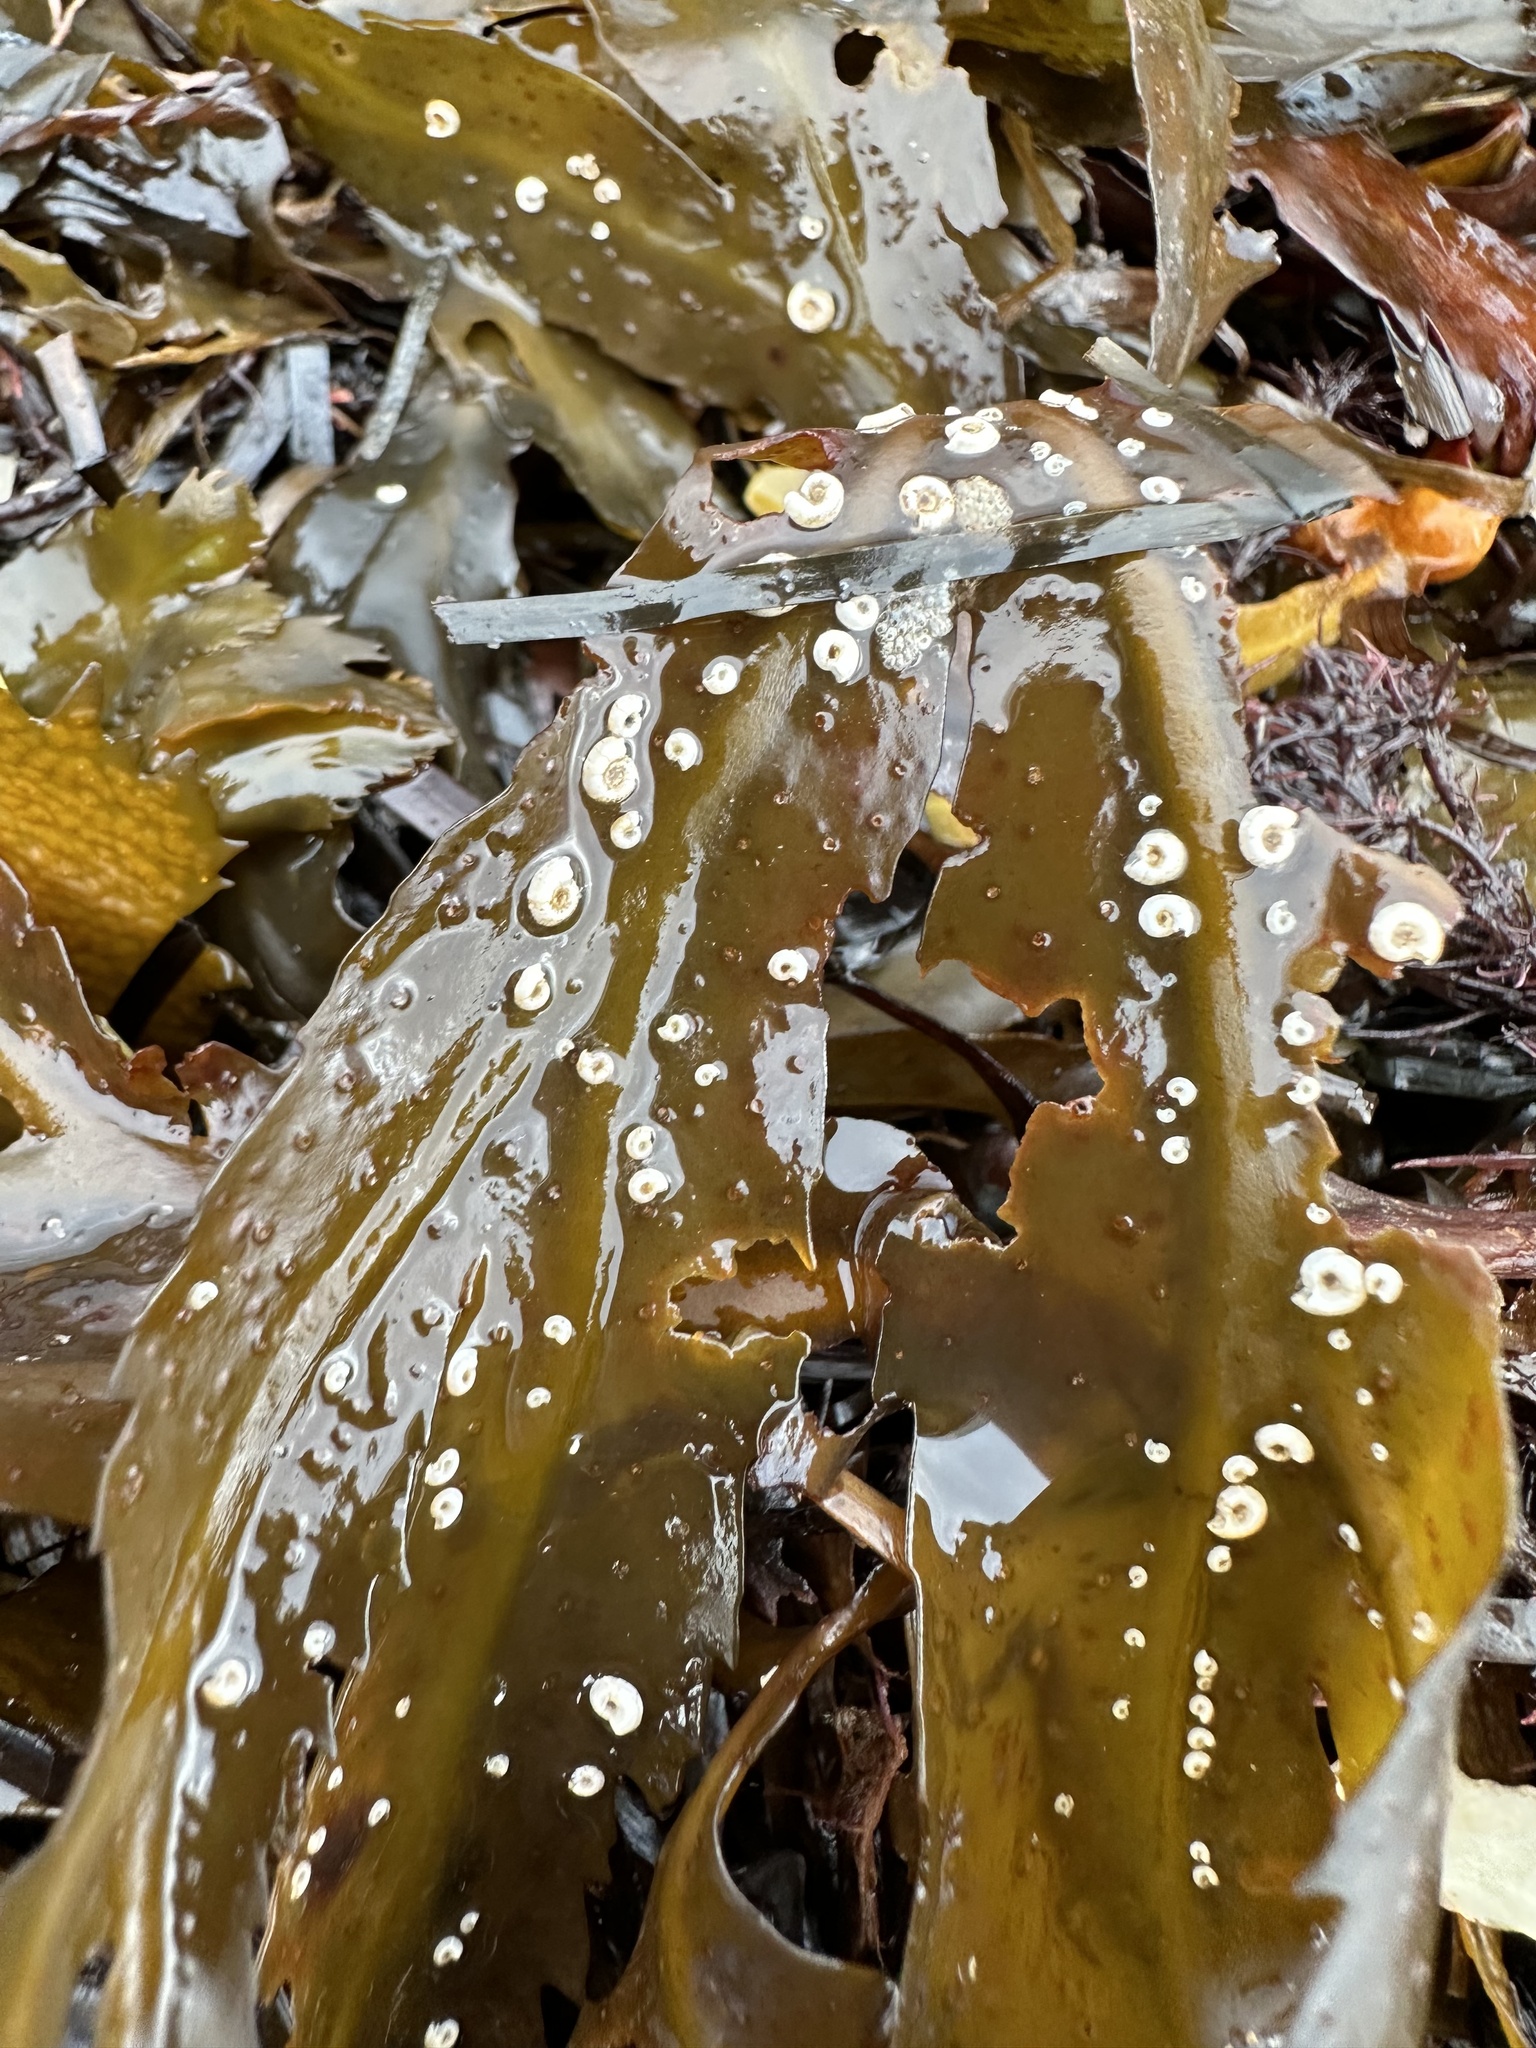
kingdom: Animalia
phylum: Annelida
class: Polychaeta
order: Sabellida
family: Serpulidae
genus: Spirorbis
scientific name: Spirorbis spirorbis
